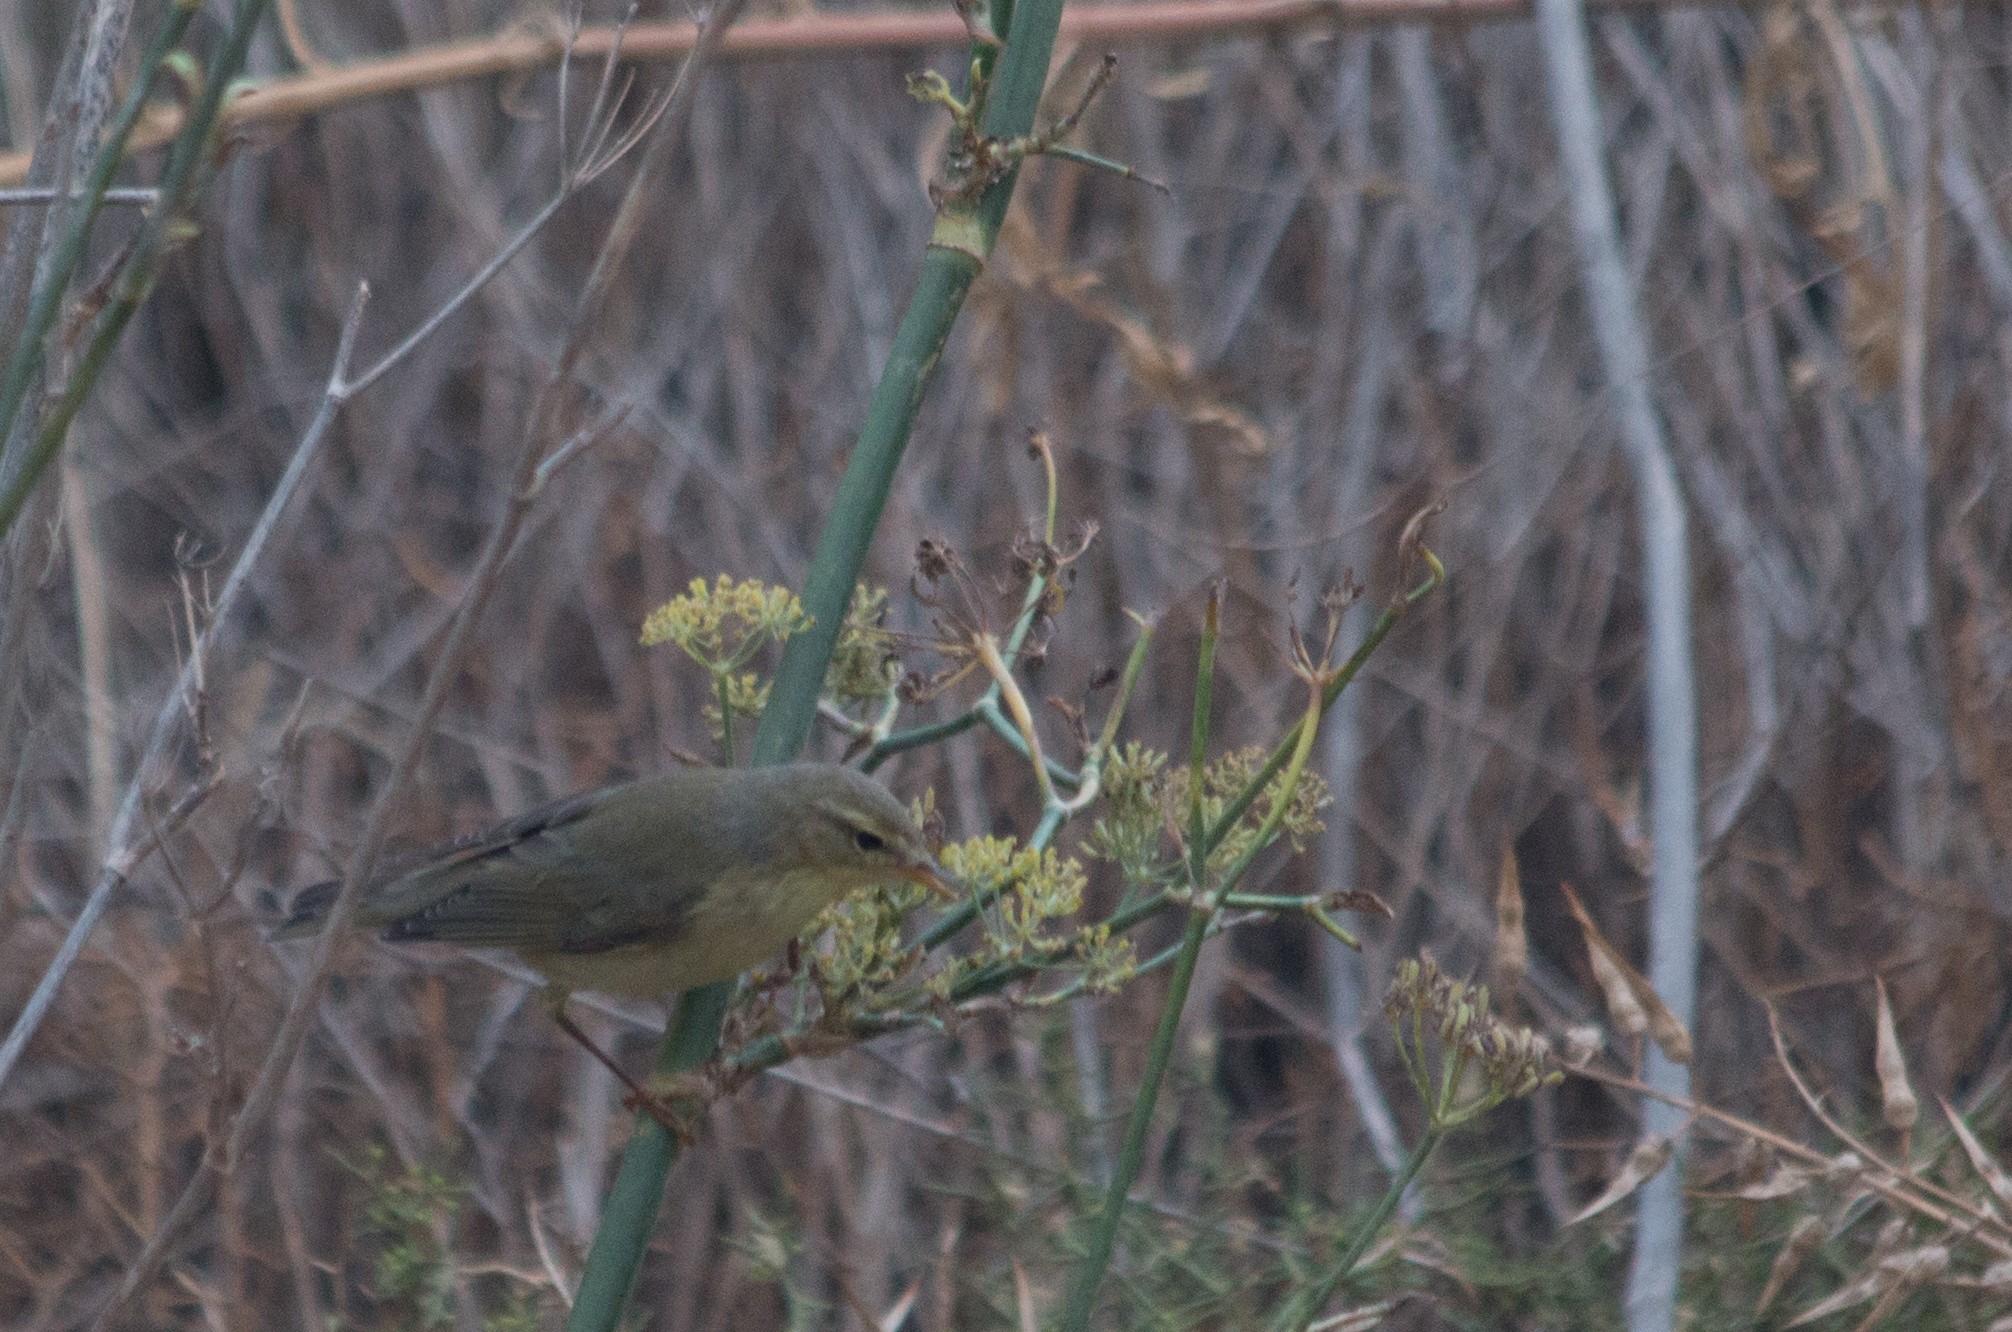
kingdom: Animalia
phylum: Chordata
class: Aves
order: Passeriformes
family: Phylloscopidae
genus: Phylloscopus
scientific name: Phylloscopus trochilus
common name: Willow warbler
